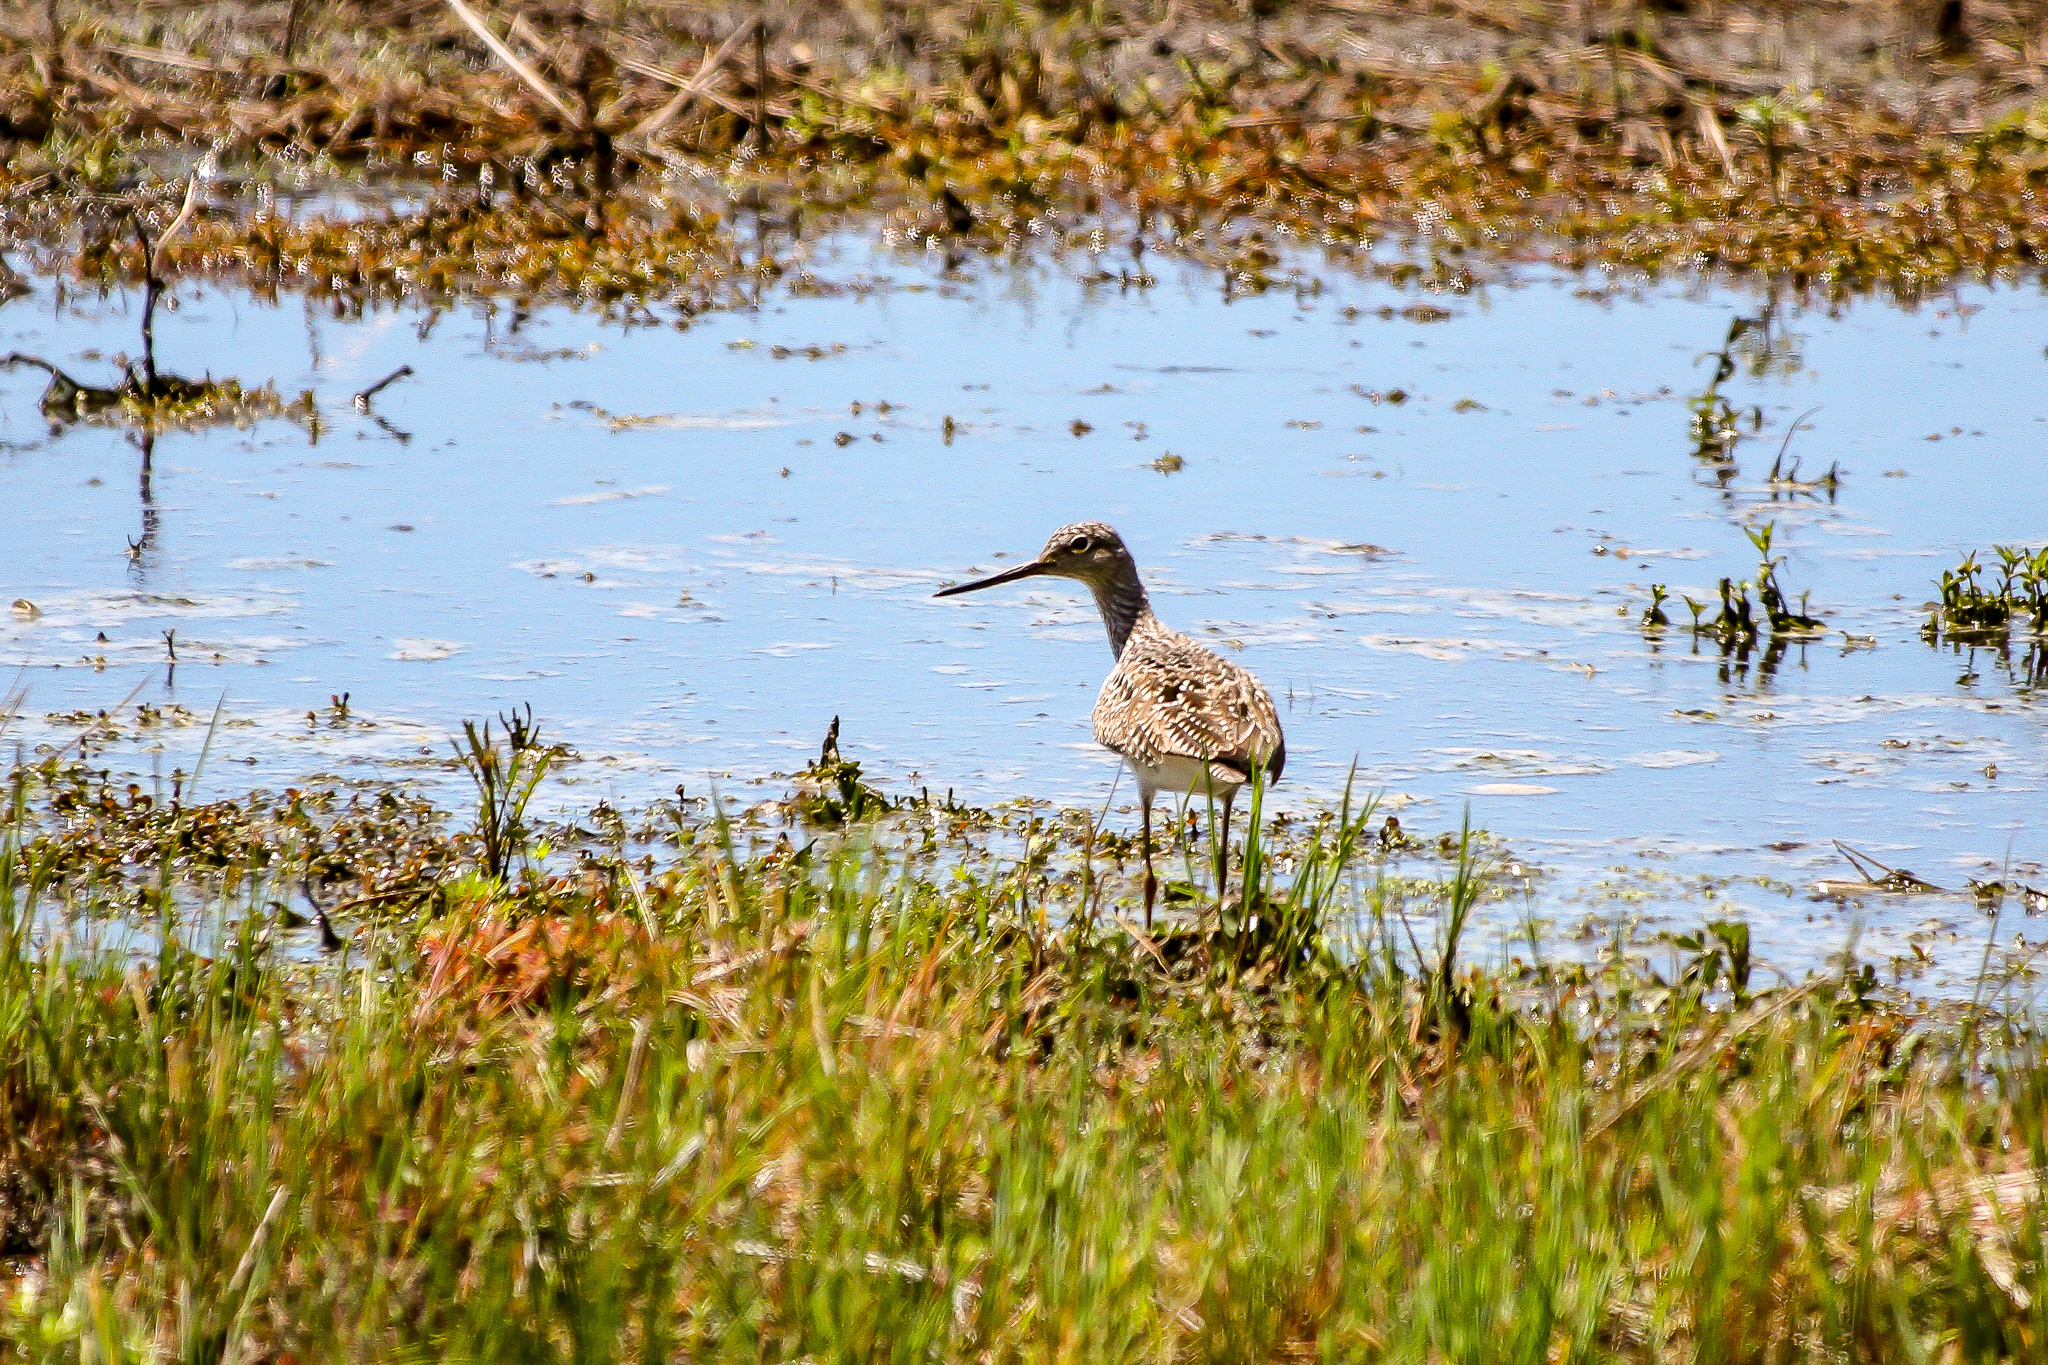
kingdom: Animalia
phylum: Chordata
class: Aves
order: Charadriiformes
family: Scolopacidae
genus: Tringa
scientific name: Tringa melanoleuca
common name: Greater yellowlegs
